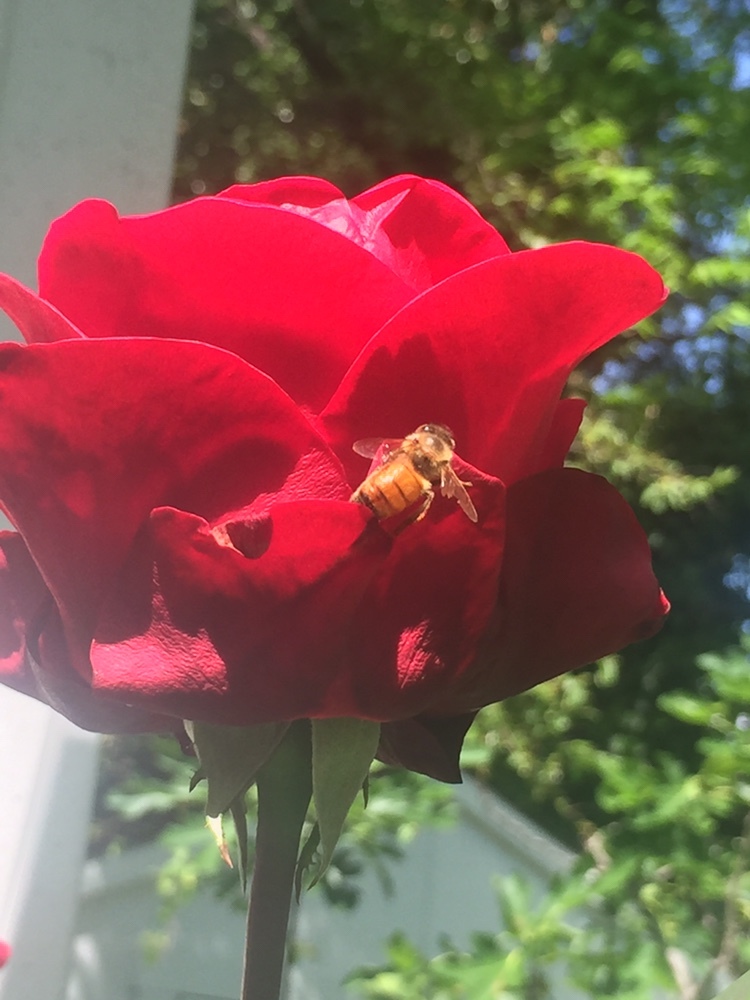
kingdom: Animalia
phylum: Arthropoda
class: Insecta
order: Hymenoptera
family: Apidae
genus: Apis
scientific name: Apis mellifera
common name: Honey bee
